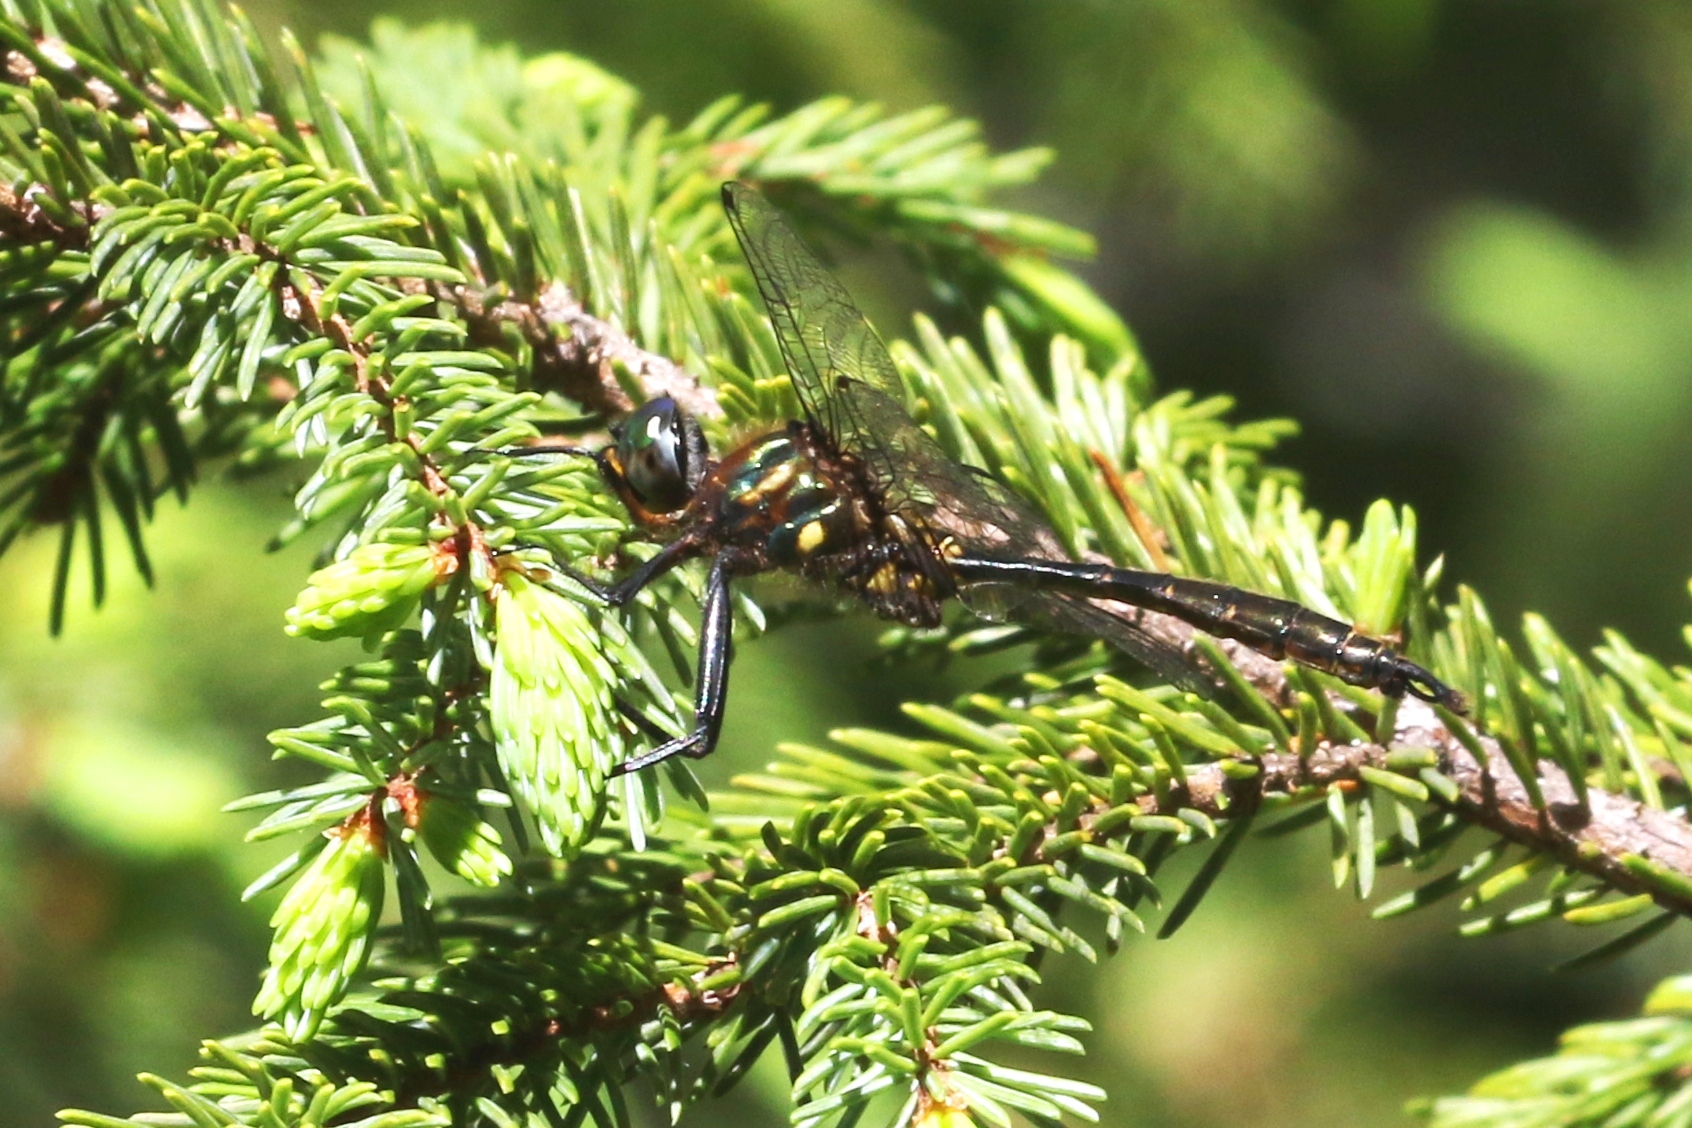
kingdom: Animalia
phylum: Arthropoda
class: Insecta
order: Odonata
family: Corduliidae
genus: Somatochlora
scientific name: Somatochlora walshii
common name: Brush-tipped emerald
